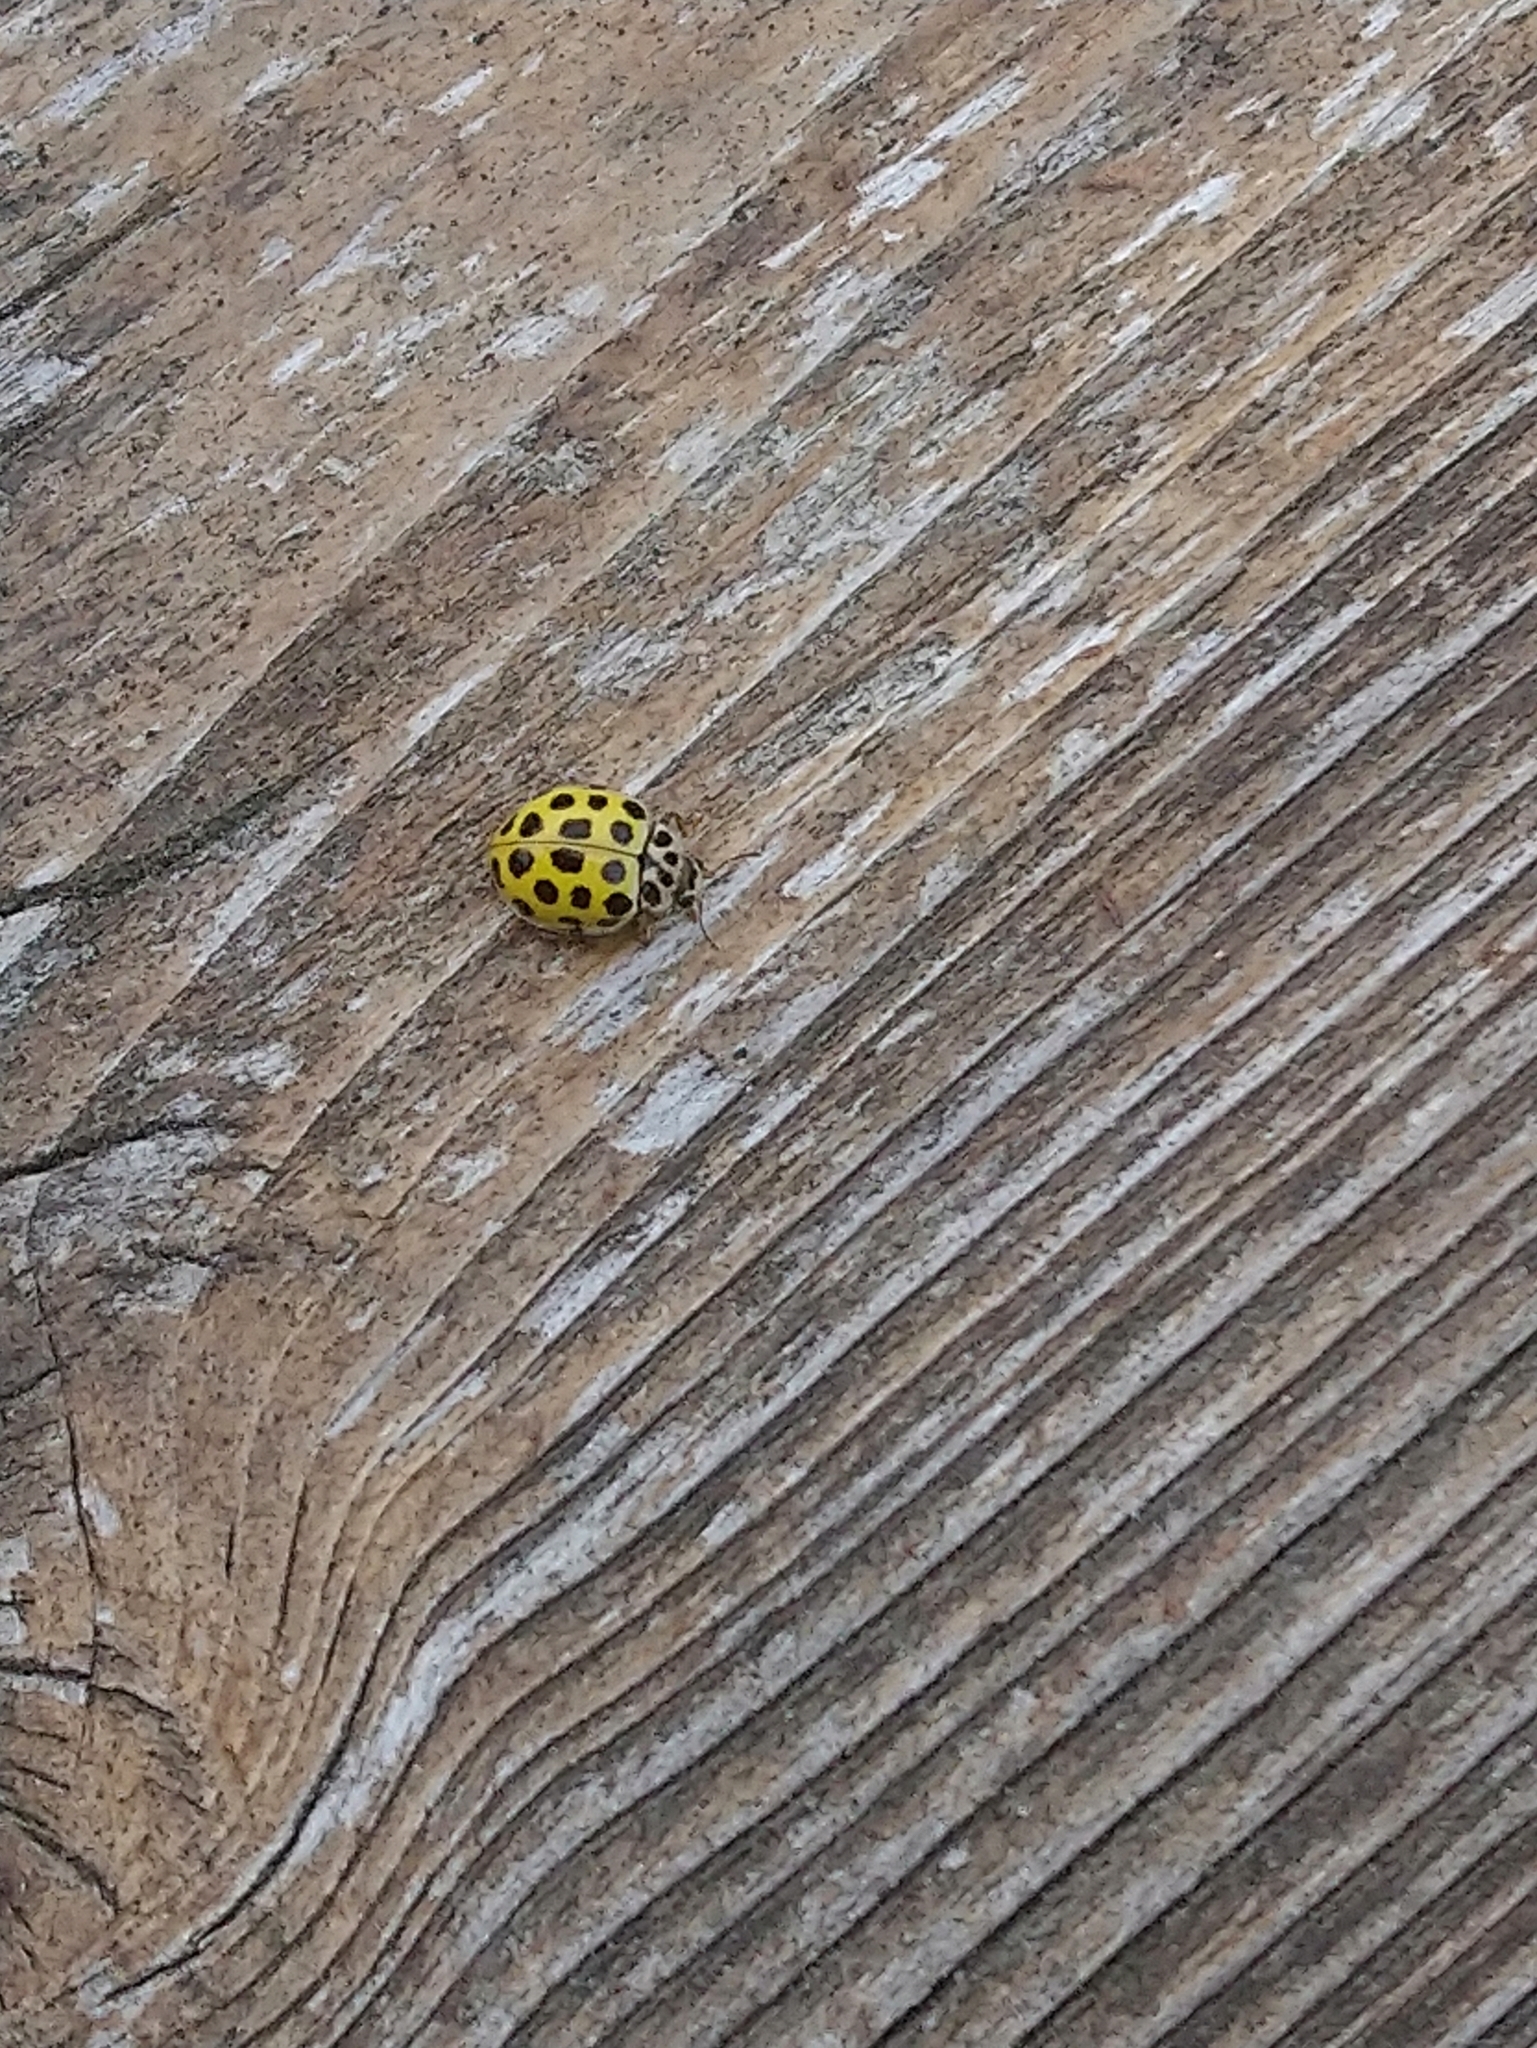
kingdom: Animalia
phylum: Arthropoda
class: Insecta
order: Coleoptera
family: Coccinellidae
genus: Psyllobora
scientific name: Psyllobora vigintiduopunctata
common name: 22-spot ladybird
